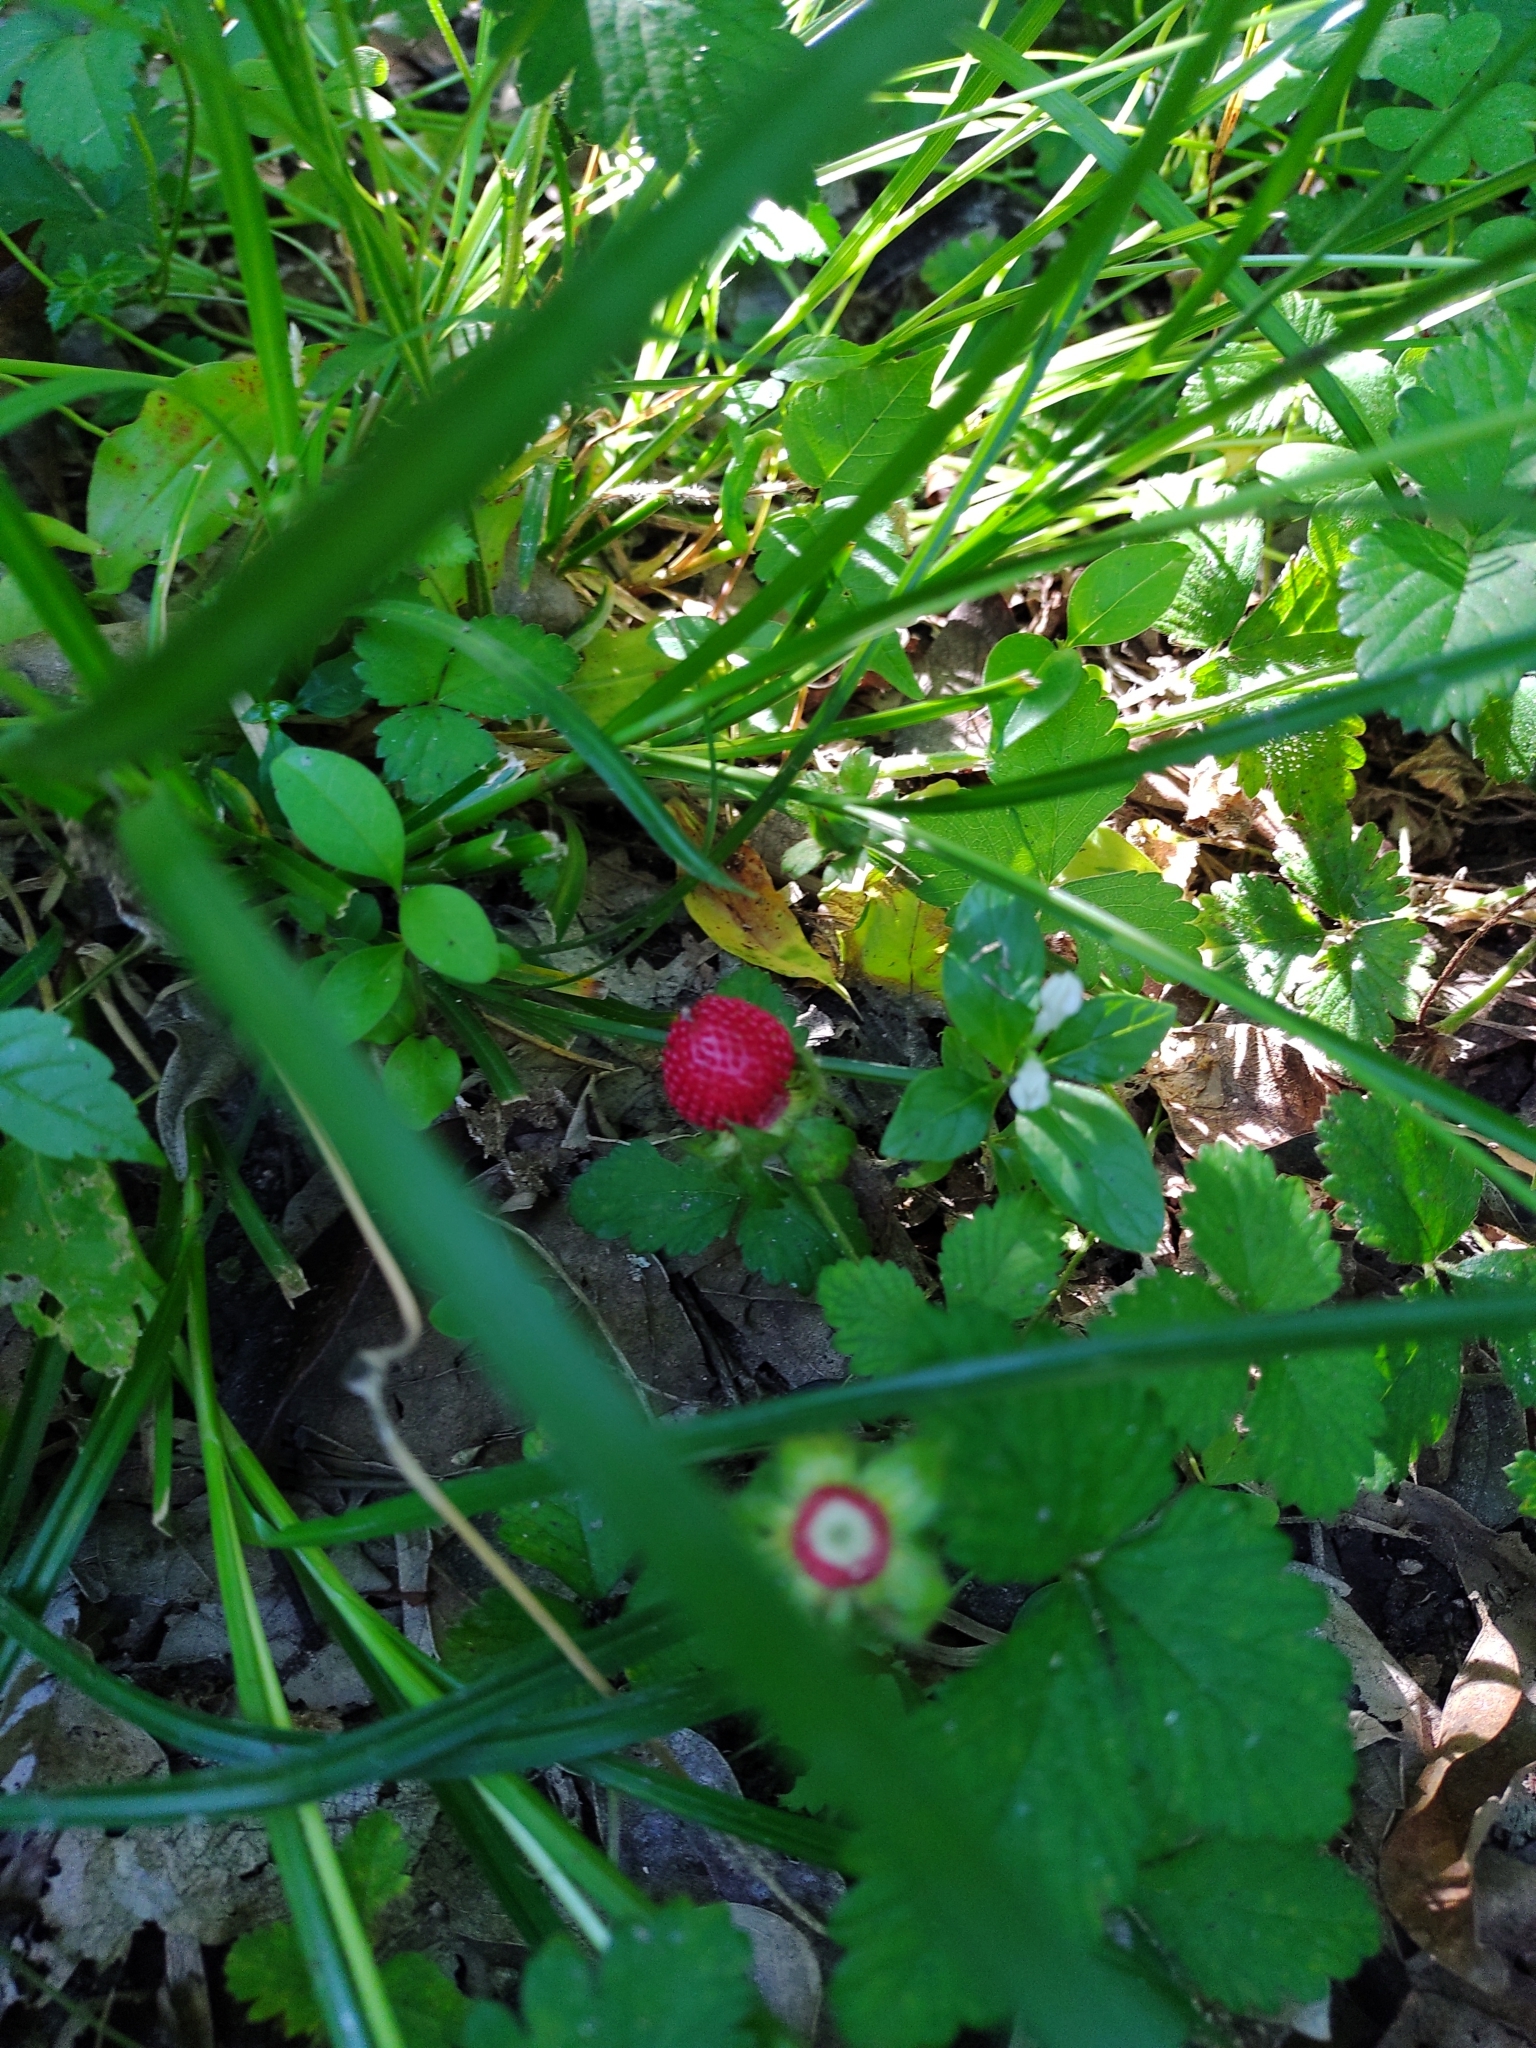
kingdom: Plantae
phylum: Tracheophyta
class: Magnoliopsida
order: Rosales
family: Rosaceae
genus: Potentilla
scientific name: Potentilla indica
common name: Yellow-flowered strawberry
